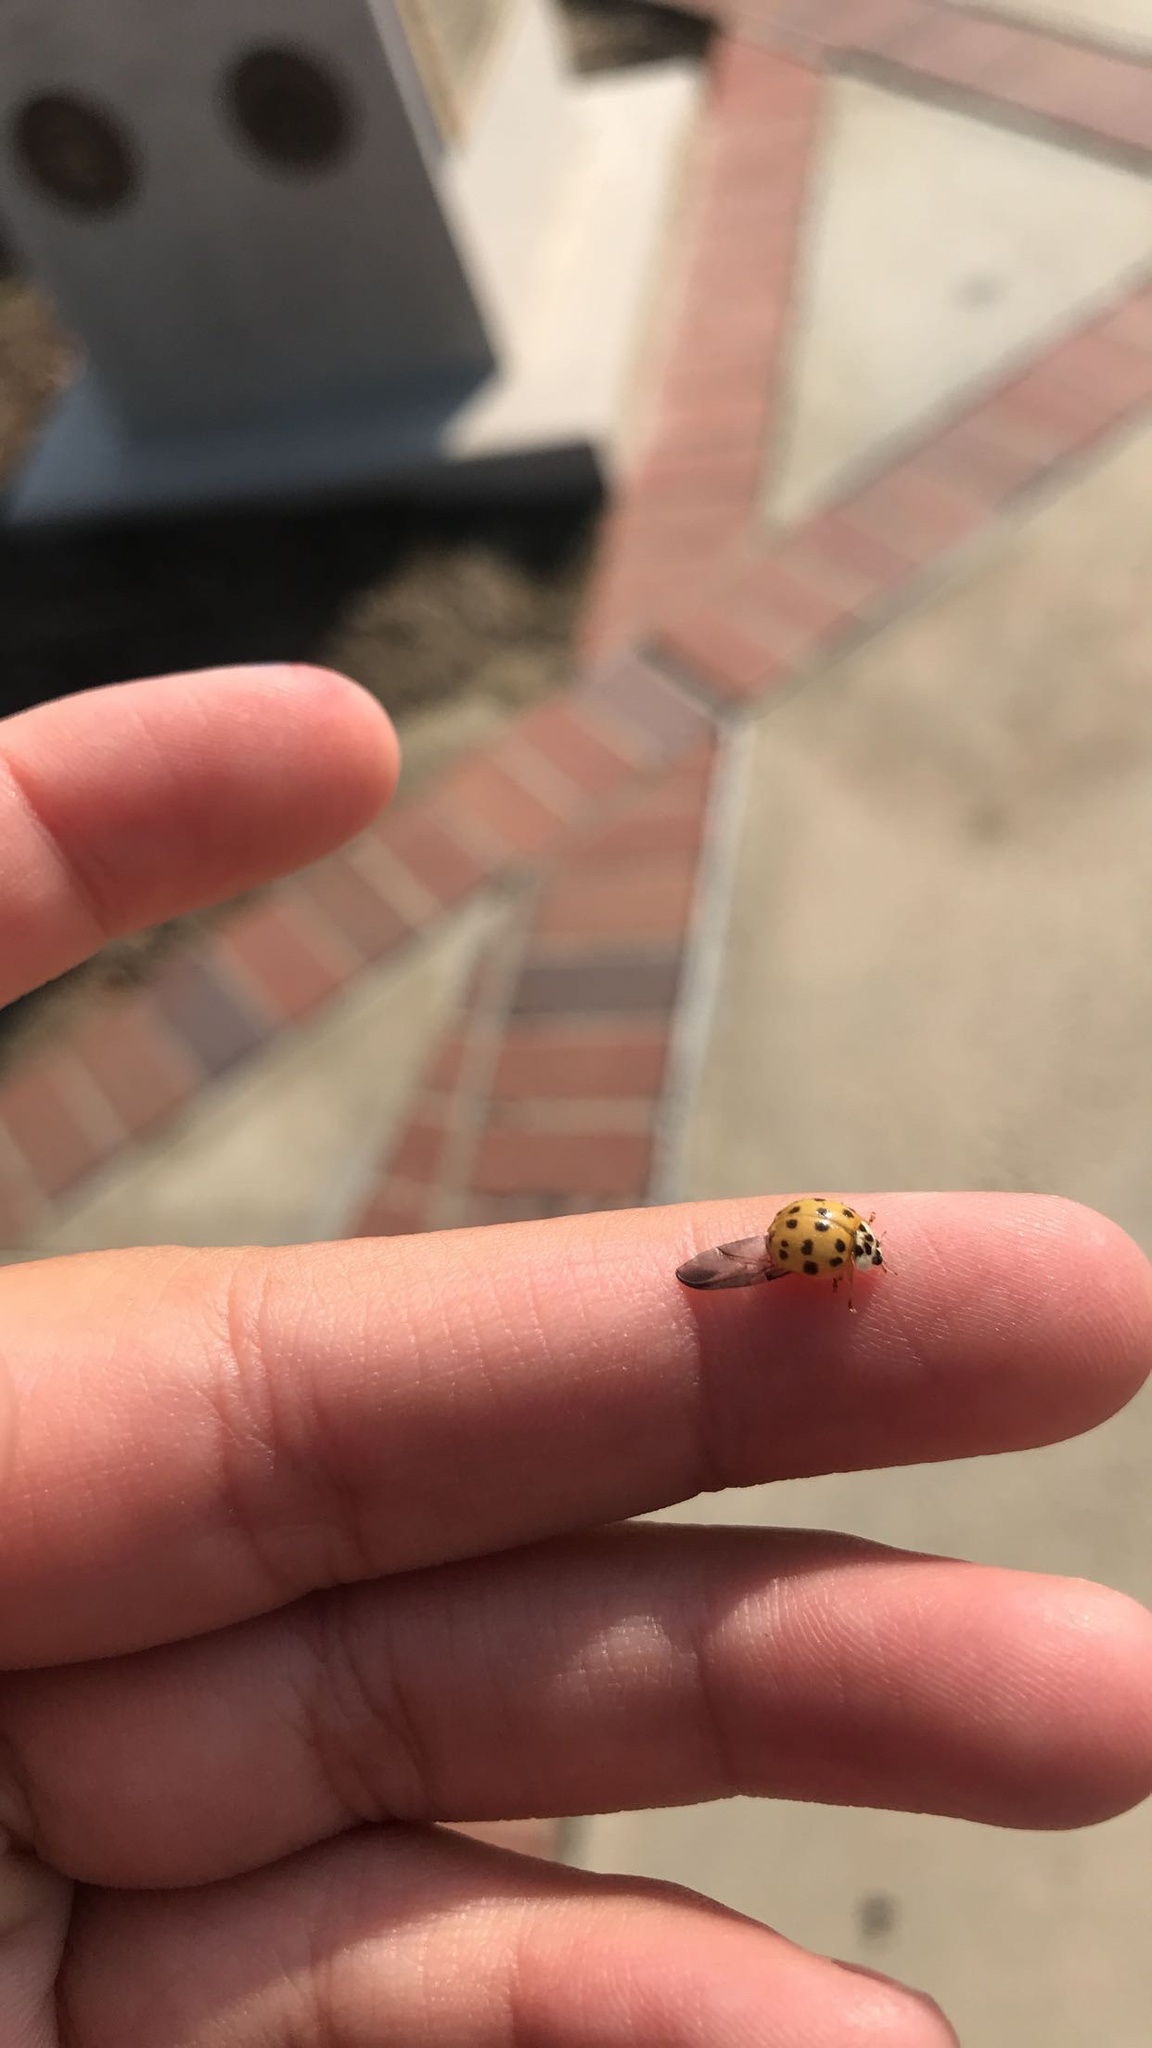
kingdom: Animalia
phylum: Arthropoda
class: Insecta
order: Coleoptera
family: Coccinellidae
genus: Harmonia
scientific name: Harmonia axyridis
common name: Harlequin ladybird
